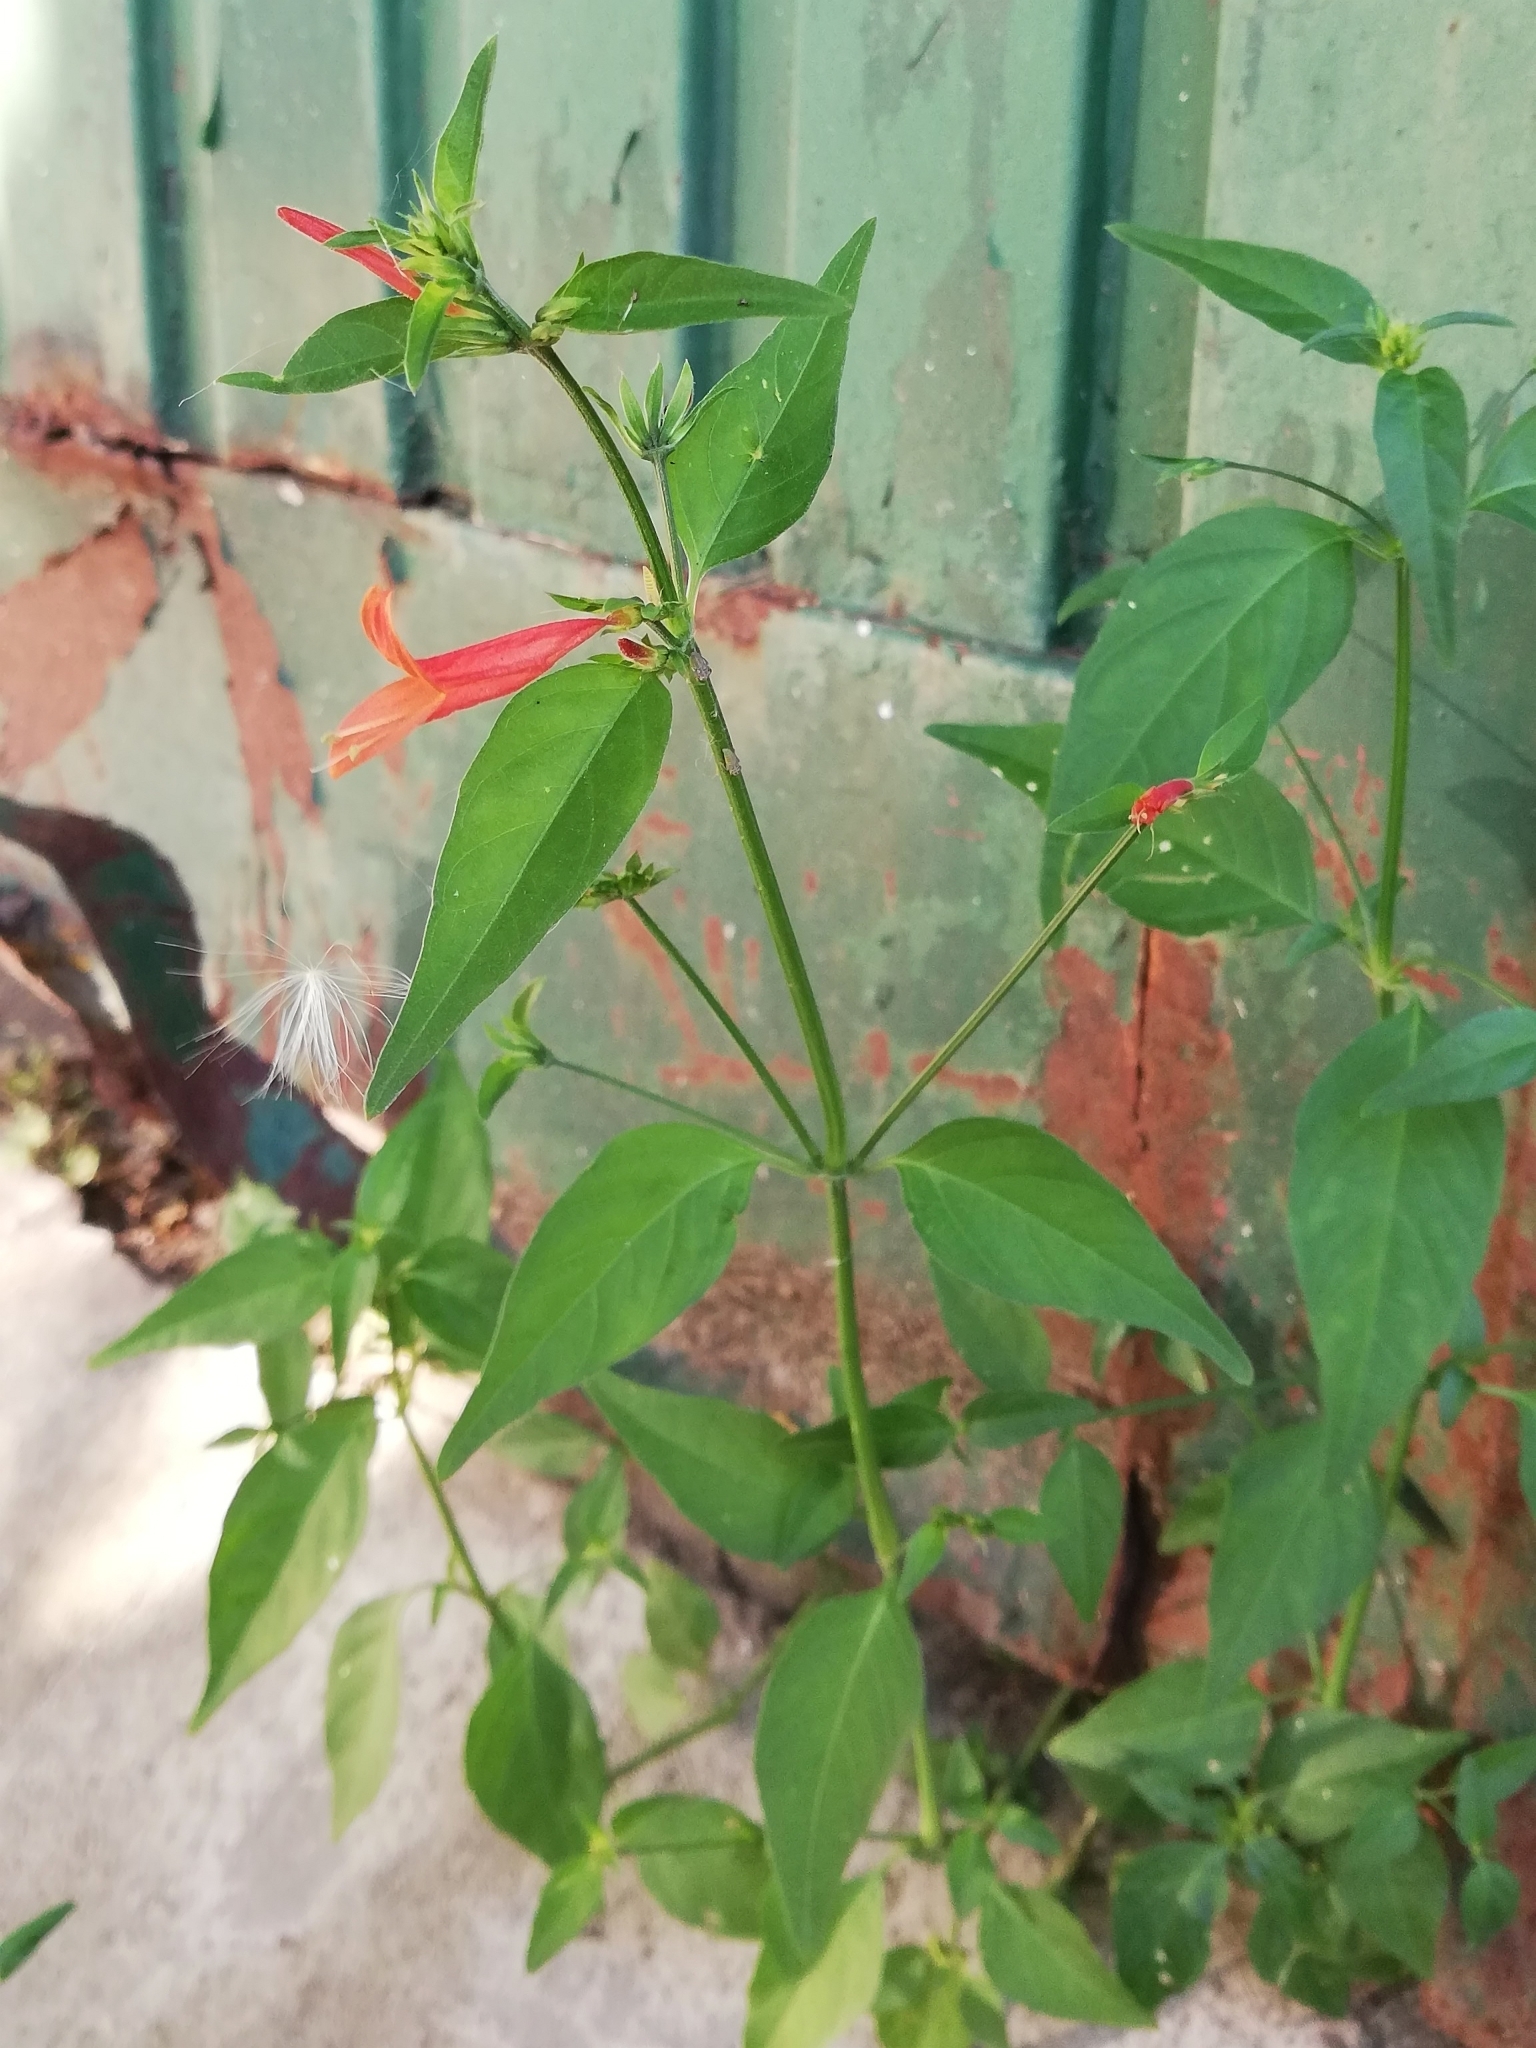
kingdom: Plantae
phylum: Tracheophyta
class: Magnoliopsida
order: Lamiales
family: Acanthaceae
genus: Dicliptera
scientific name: Dicliptera squarrosa
